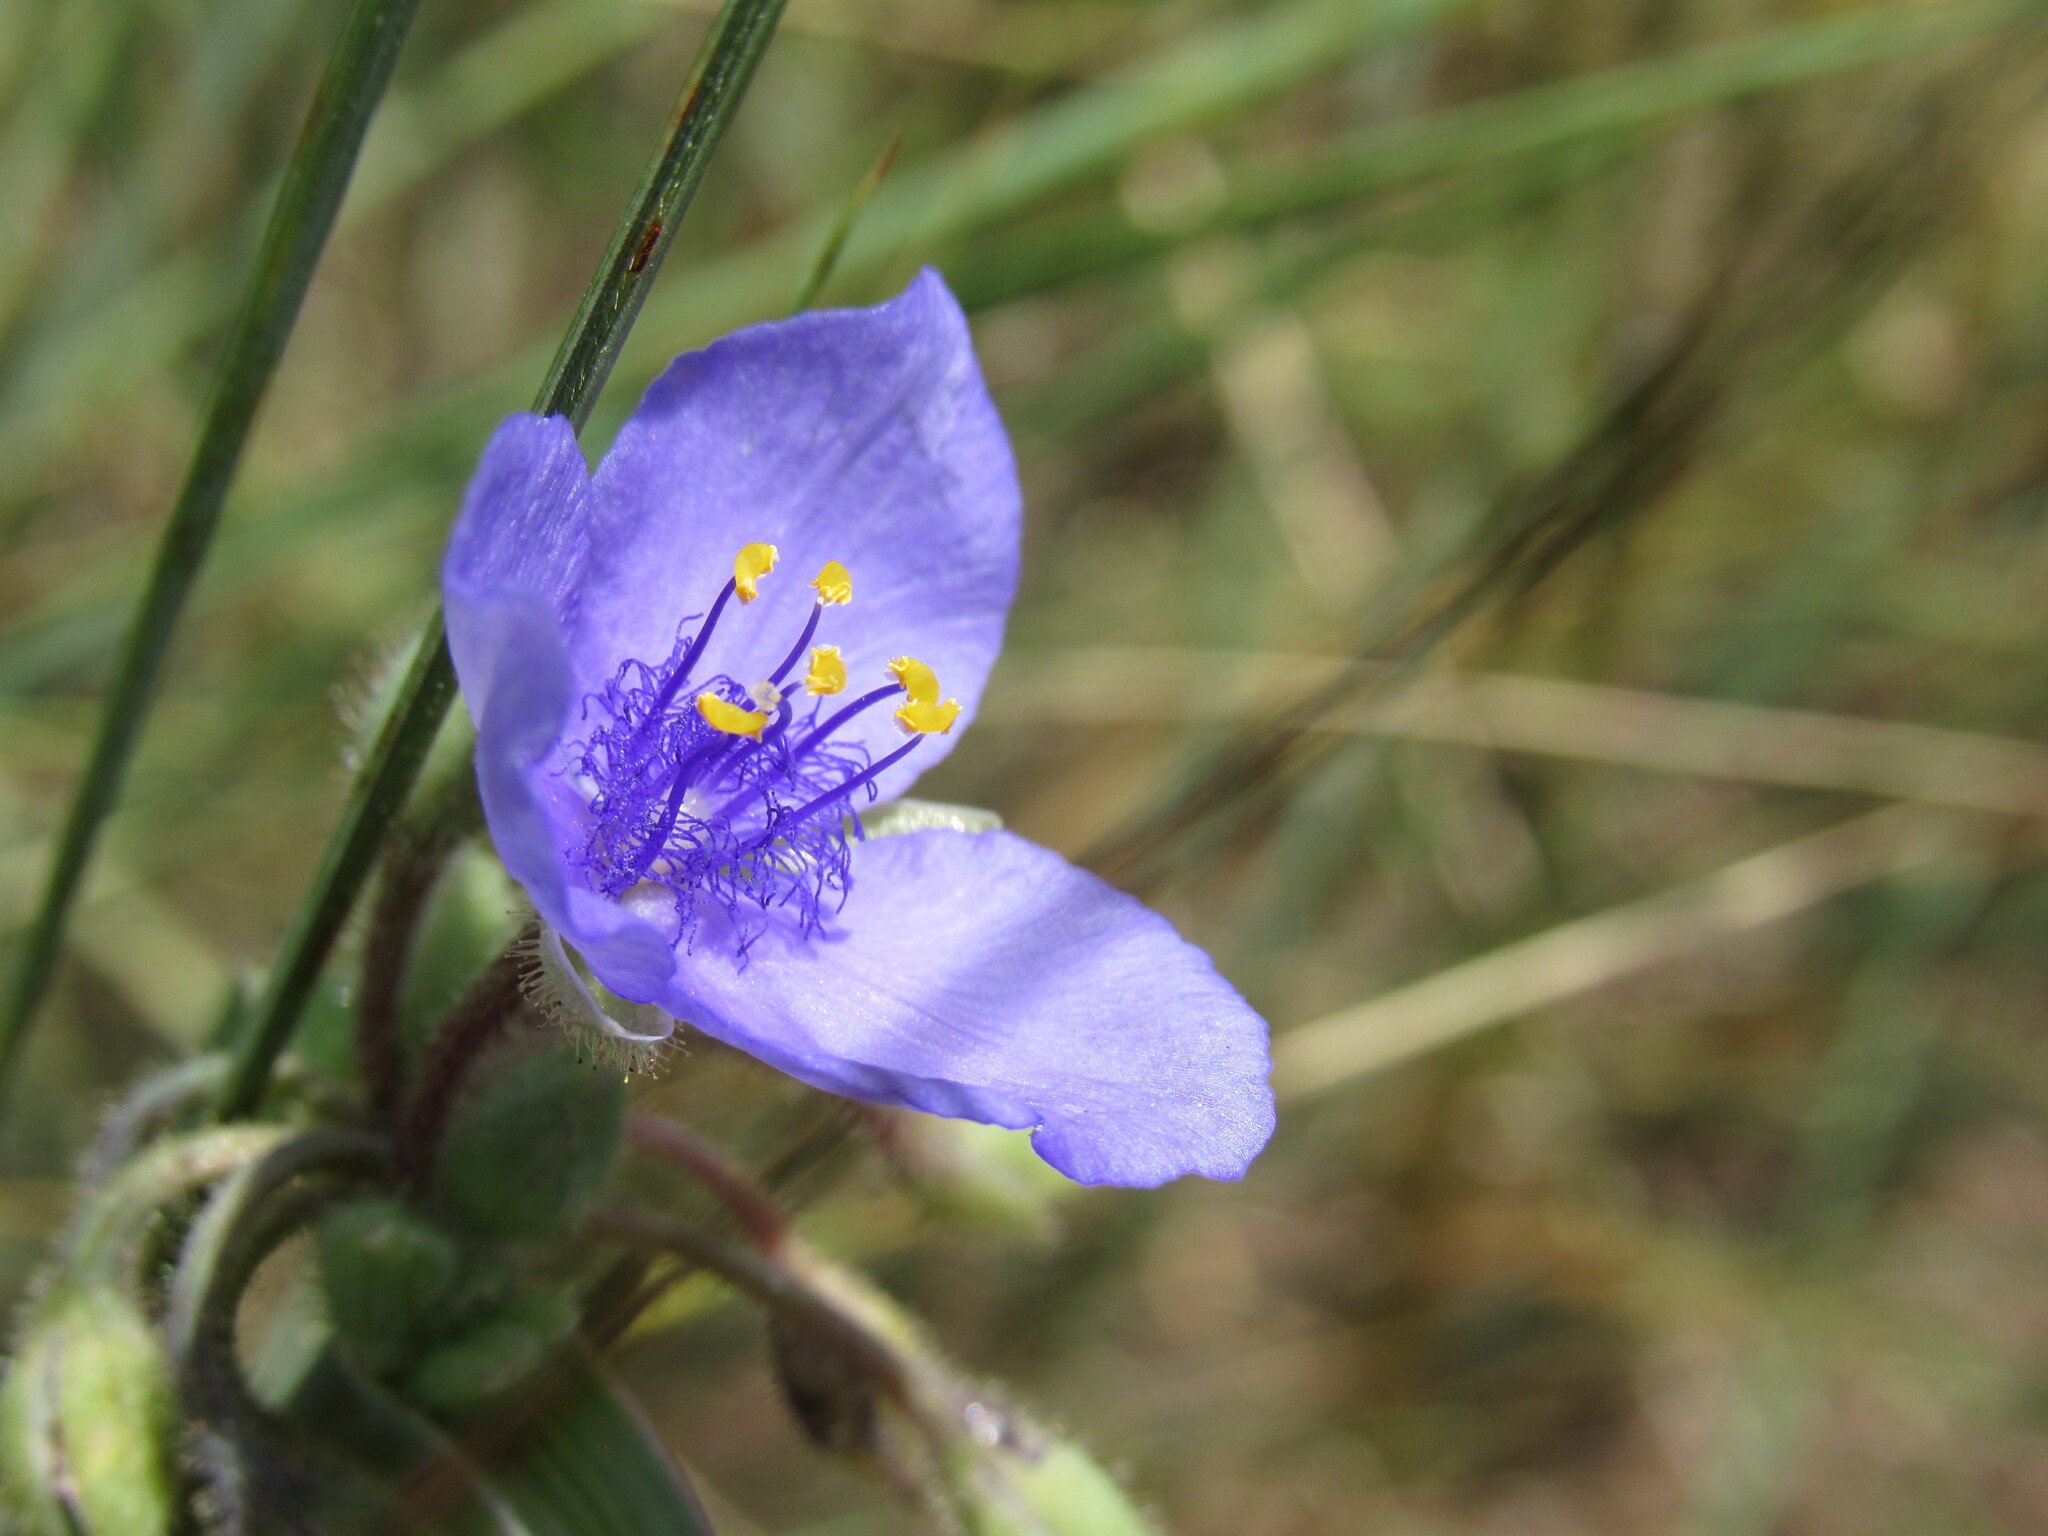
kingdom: Plantae
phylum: Tracheophyta
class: Liliopsida
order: Commelinales
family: Commelinaceae
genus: Tradescantia
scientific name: Tradescantia occidentalis
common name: Prairie spiderwort
